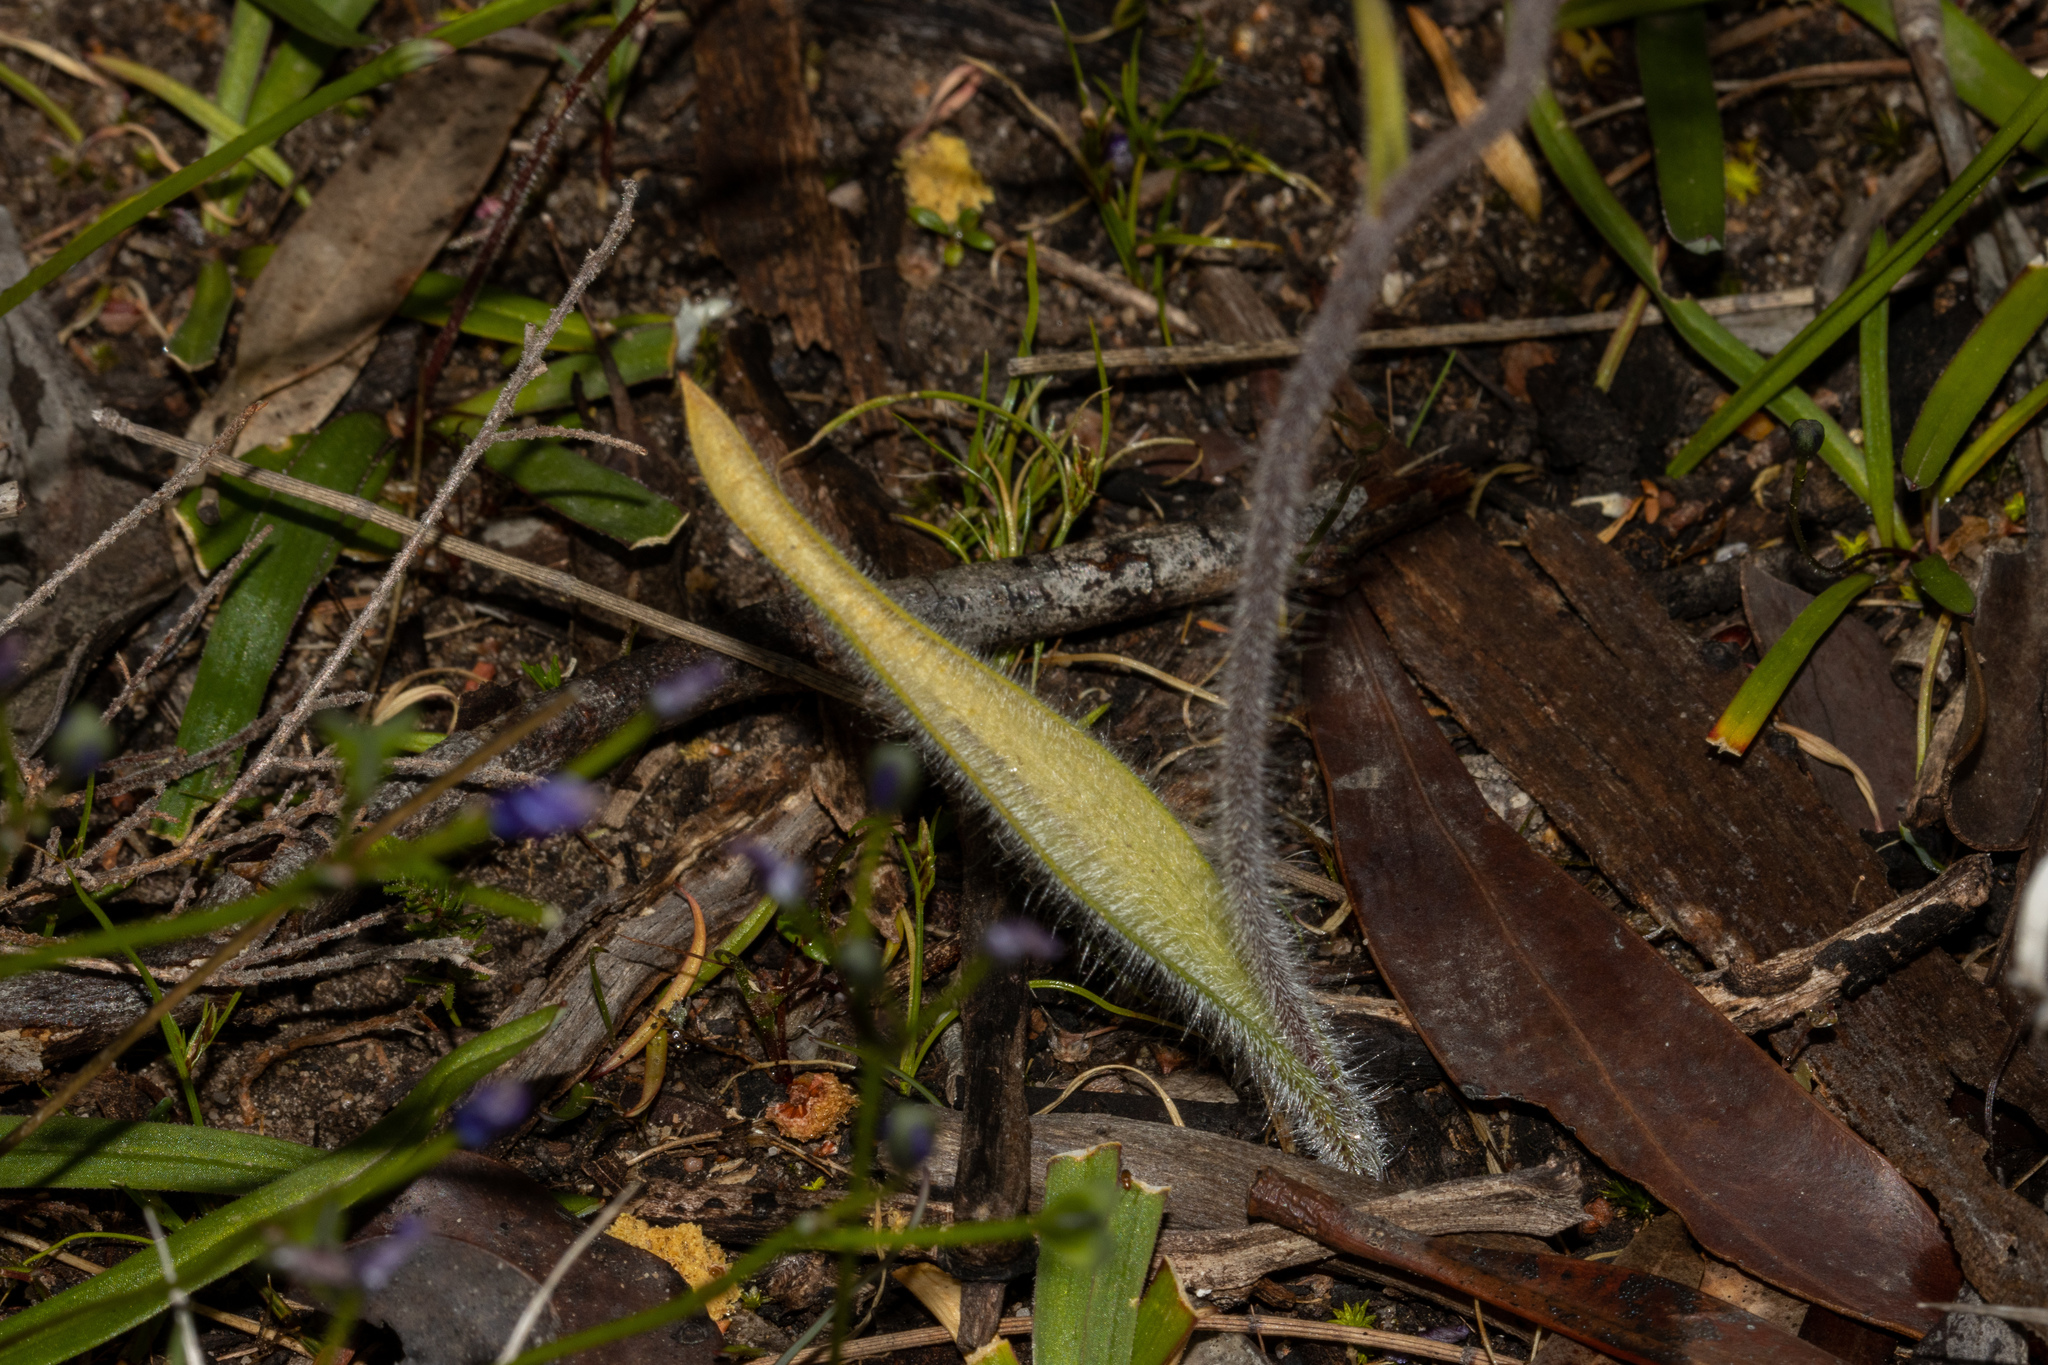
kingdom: Plantae
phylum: Tracheophyta
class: Liliopsida
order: Asparagales
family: Orchidaceae
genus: Caladenia
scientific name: Caladenia tentaculata
